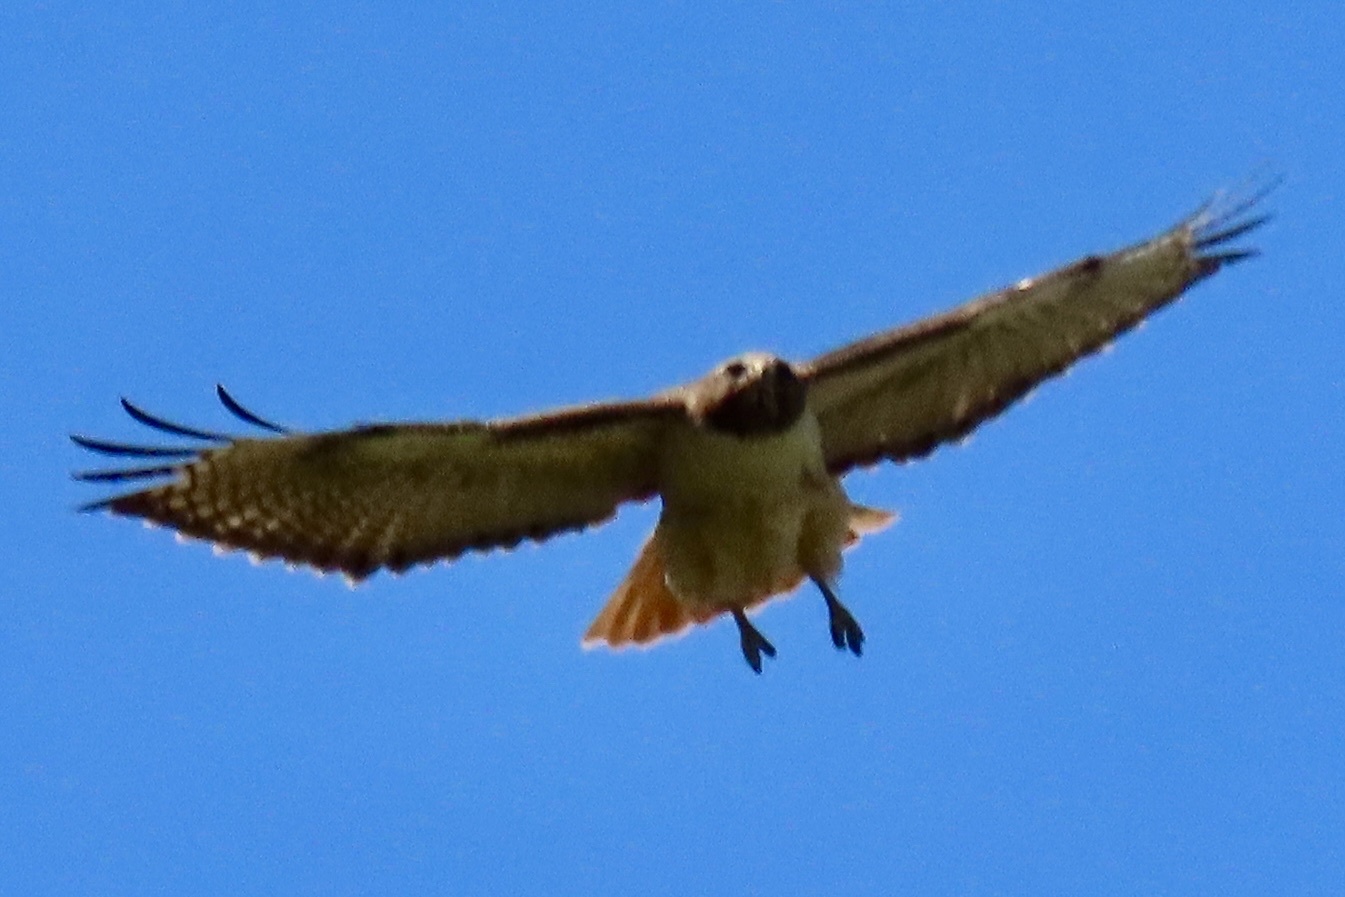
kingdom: Animalia
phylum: Chordata
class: Aves
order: Accipitriformes
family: Accipitridae
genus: Buteo
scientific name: Buteo jamaicensis
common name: Red-tailed hawk
